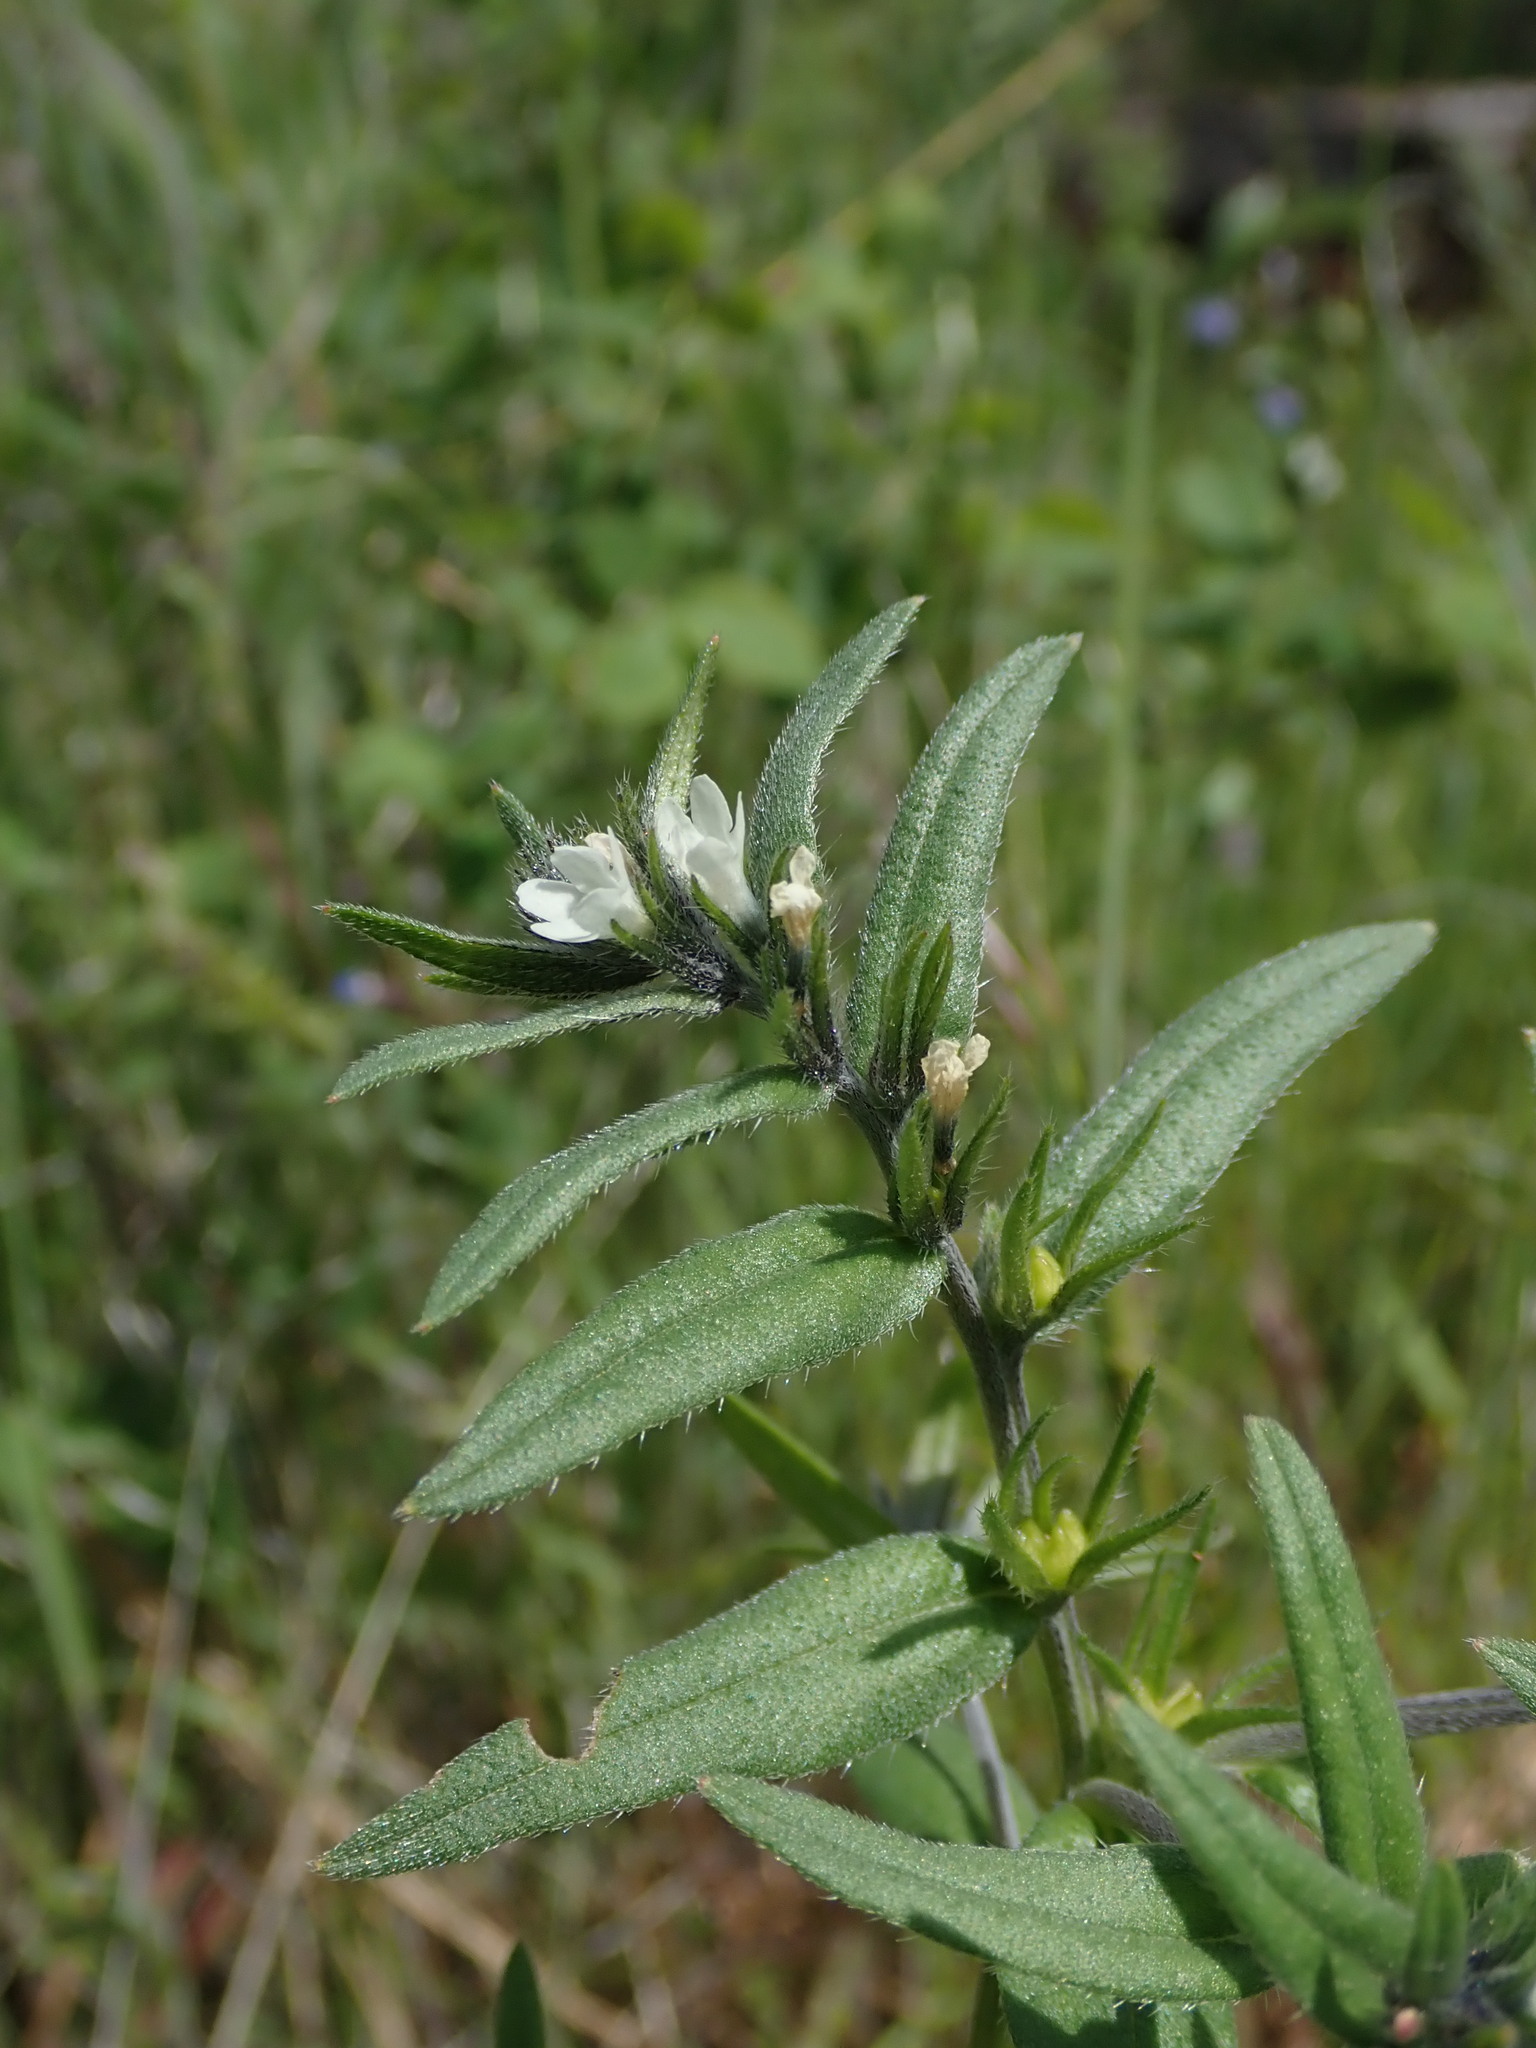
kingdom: Plantae
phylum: Tracheophyta
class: Magnoliopsida
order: Boraginales
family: Boraginaceae
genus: Buglossoides
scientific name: Buglossoides arvensis
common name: Corn gromwell
